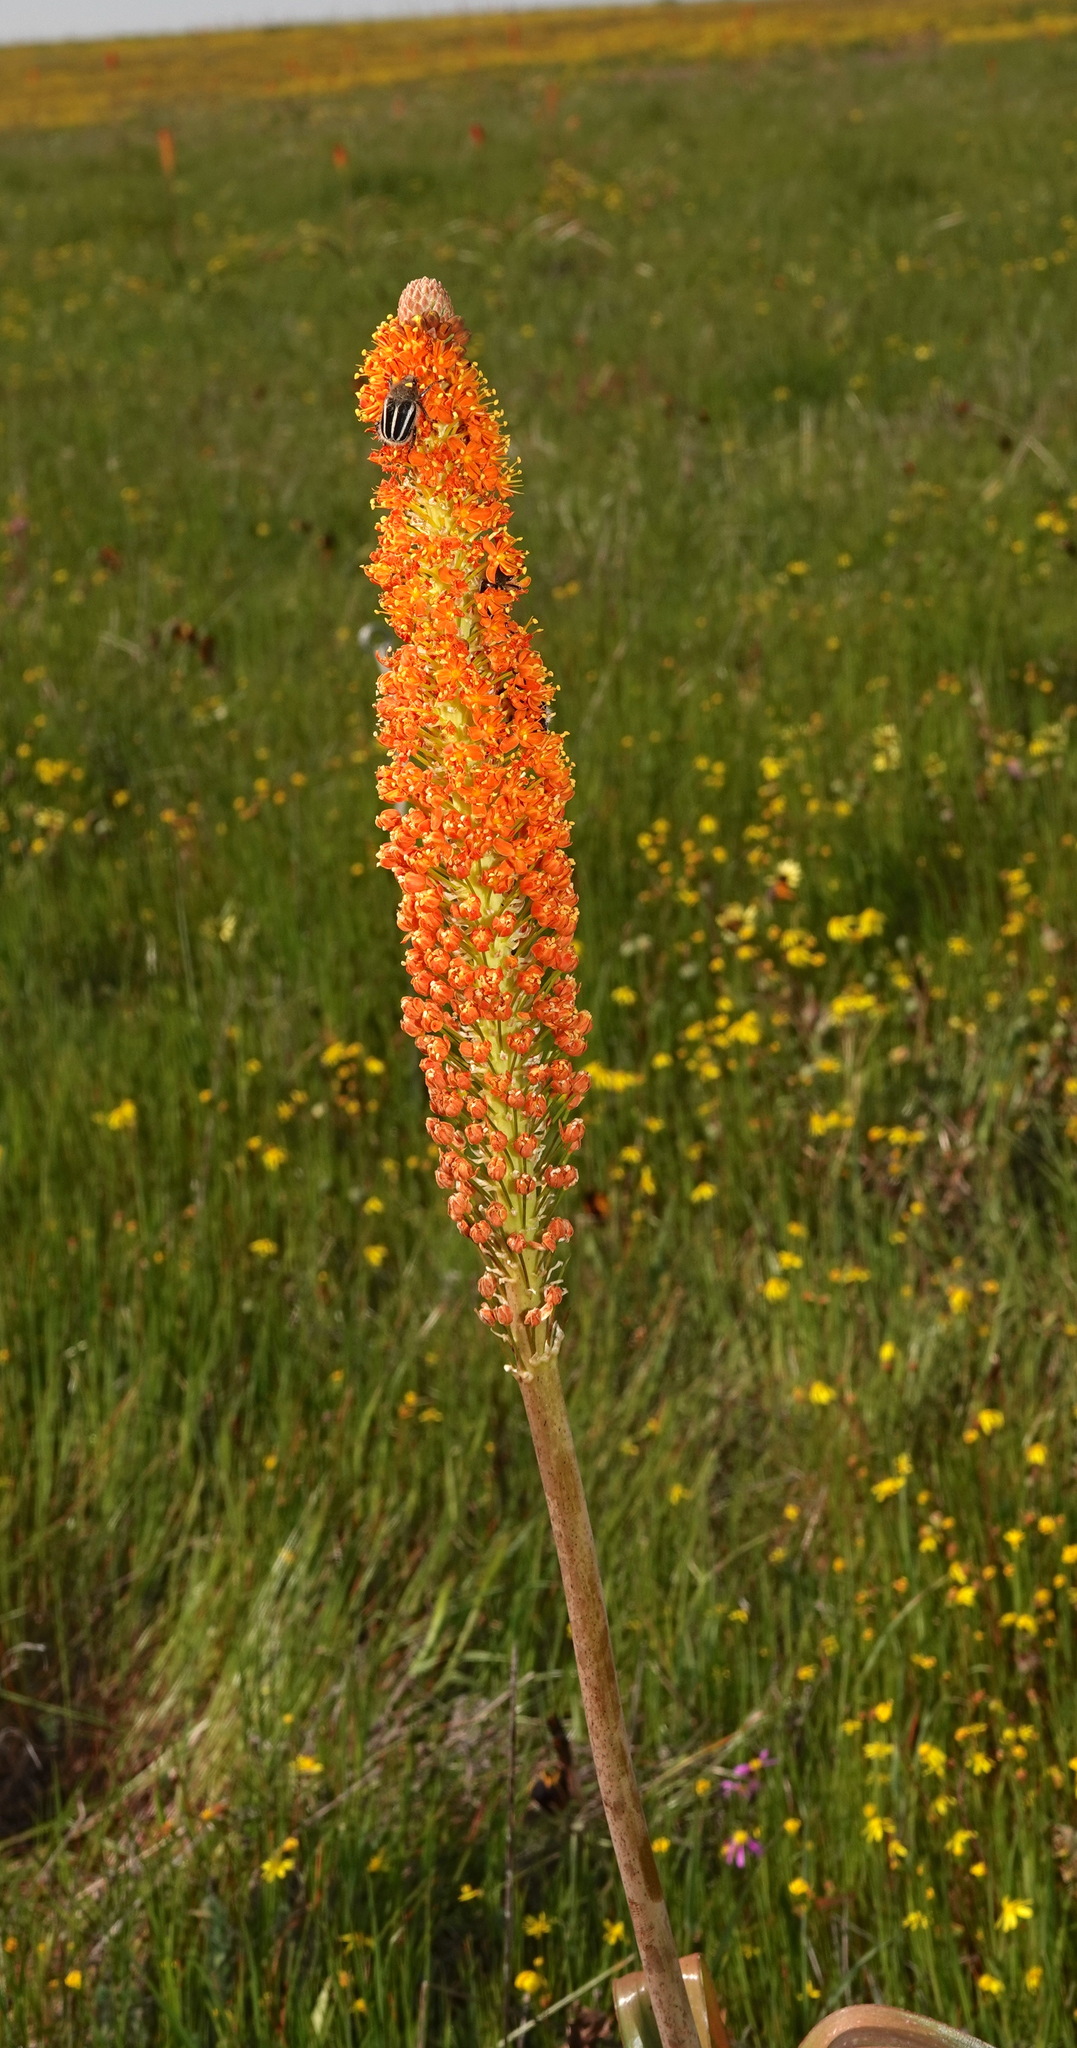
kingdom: Plantae
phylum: Tracheophyta
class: Liliopsida
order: Asparagales
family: Asphodelaceae
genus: Bulbinella
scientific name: Bulbinella latifolia
